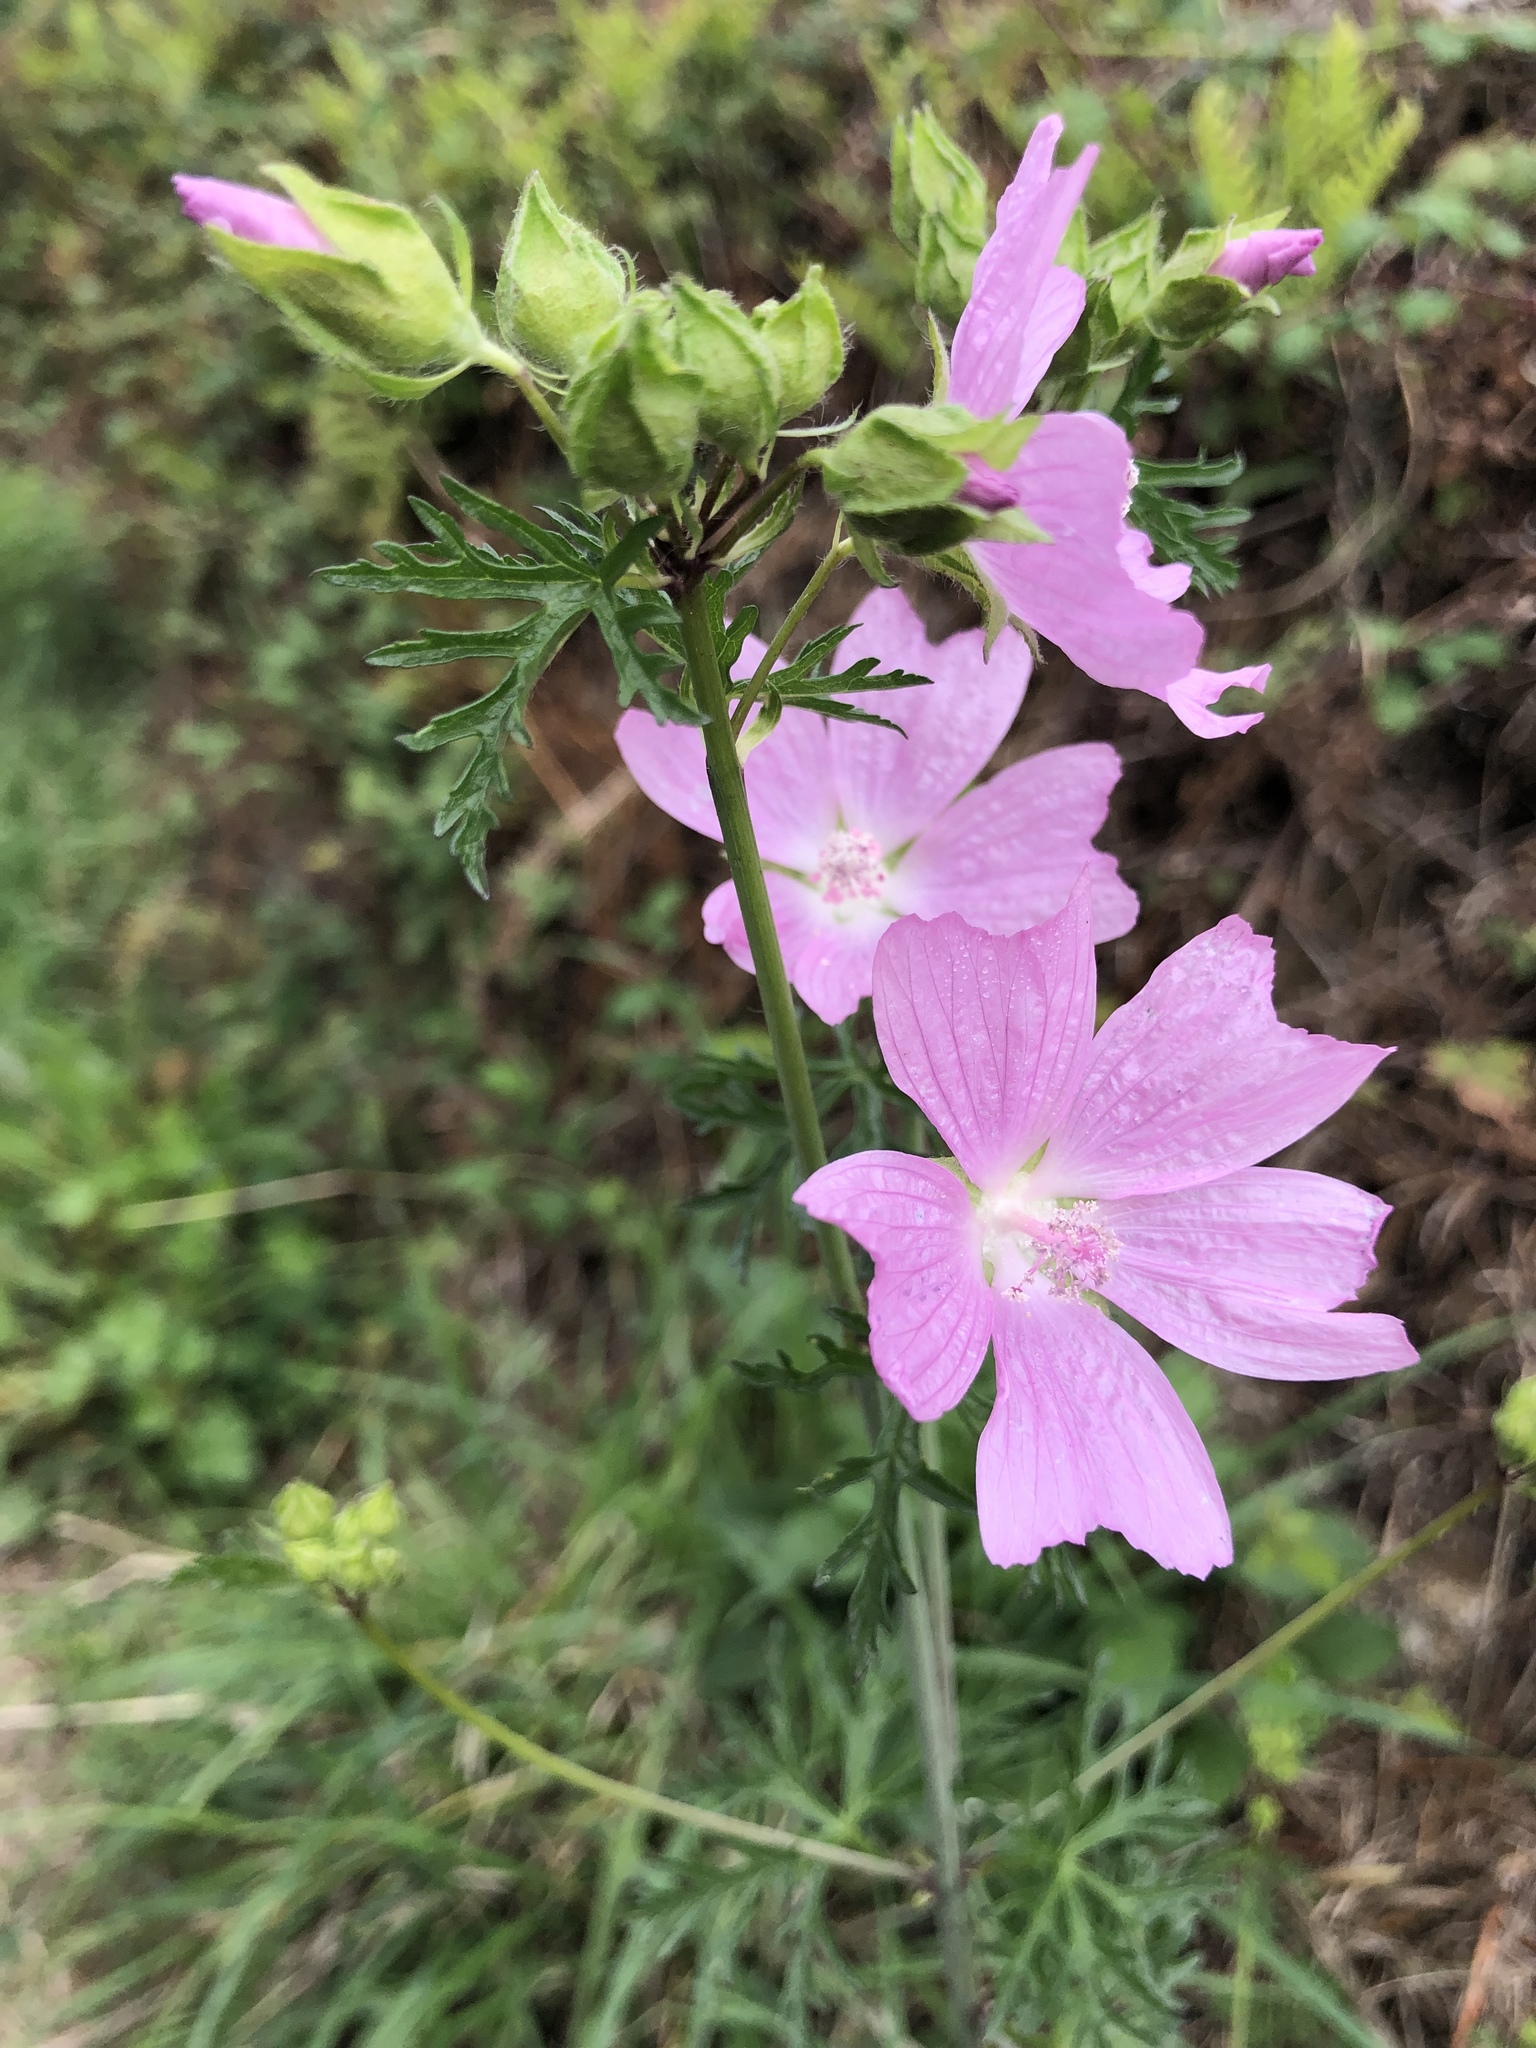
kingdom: Plantae
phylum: Tracheophyta
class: Magnoliopsida
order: Malvales
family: Malvaceae
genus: Malva
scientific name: Malva moschata
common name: Musk mallow
